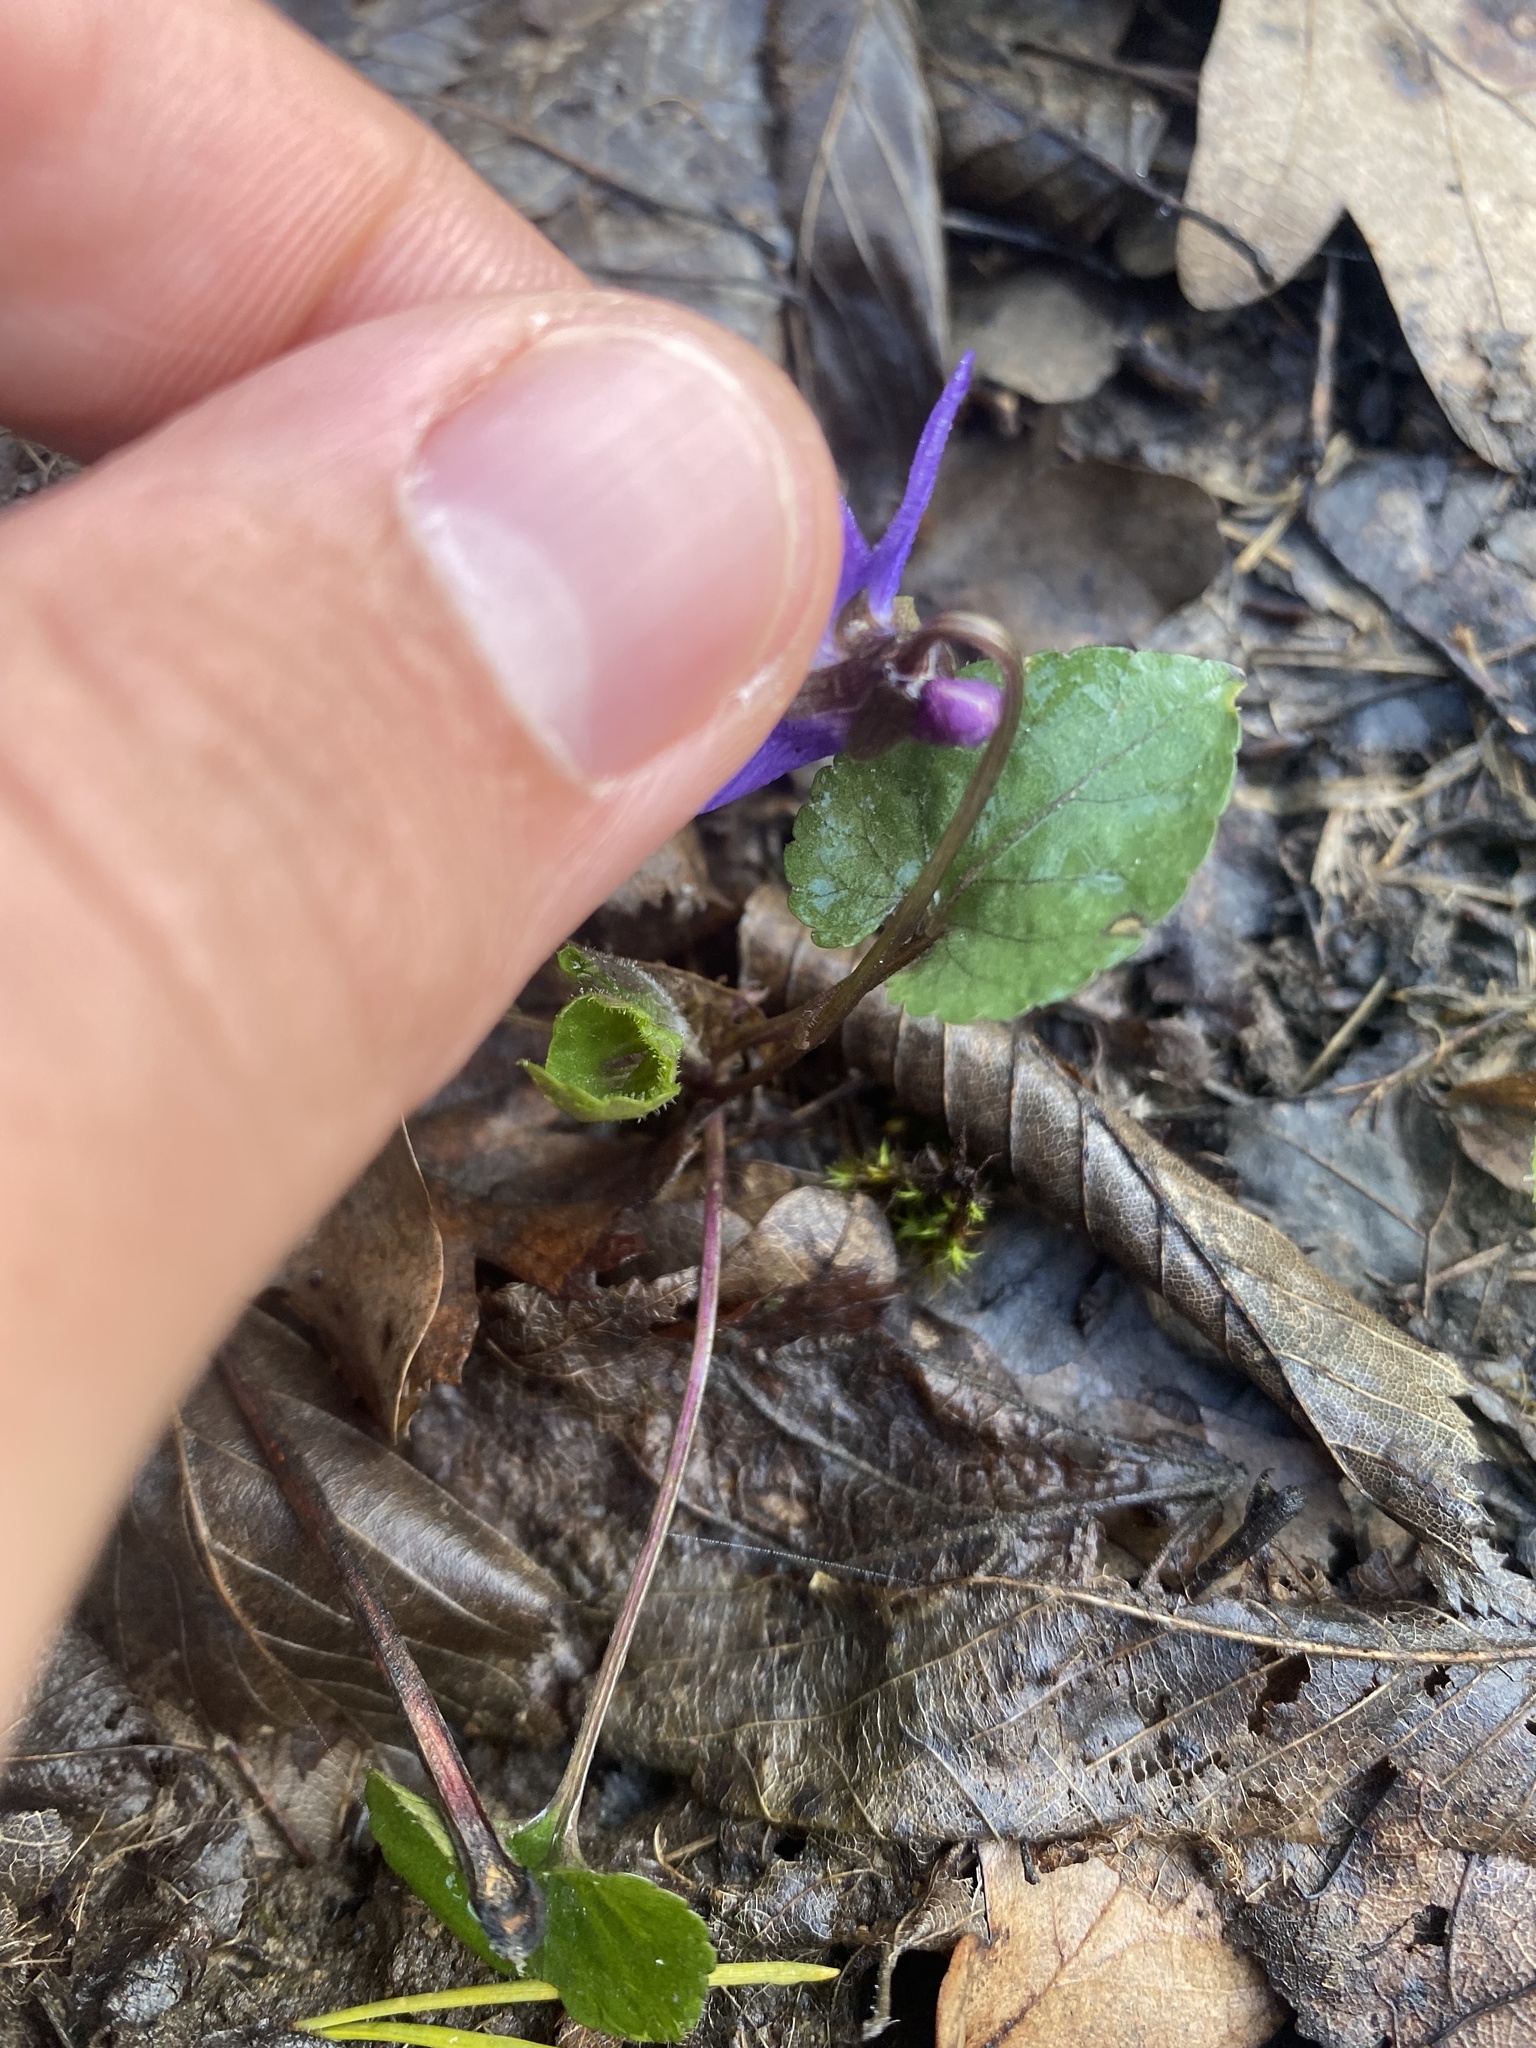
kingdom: Plantae
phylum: Tracheophyta
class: Magnoliopsida
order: Malpighiales
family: Violaceae
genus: Viola
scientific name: Viola alba
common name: White violet
